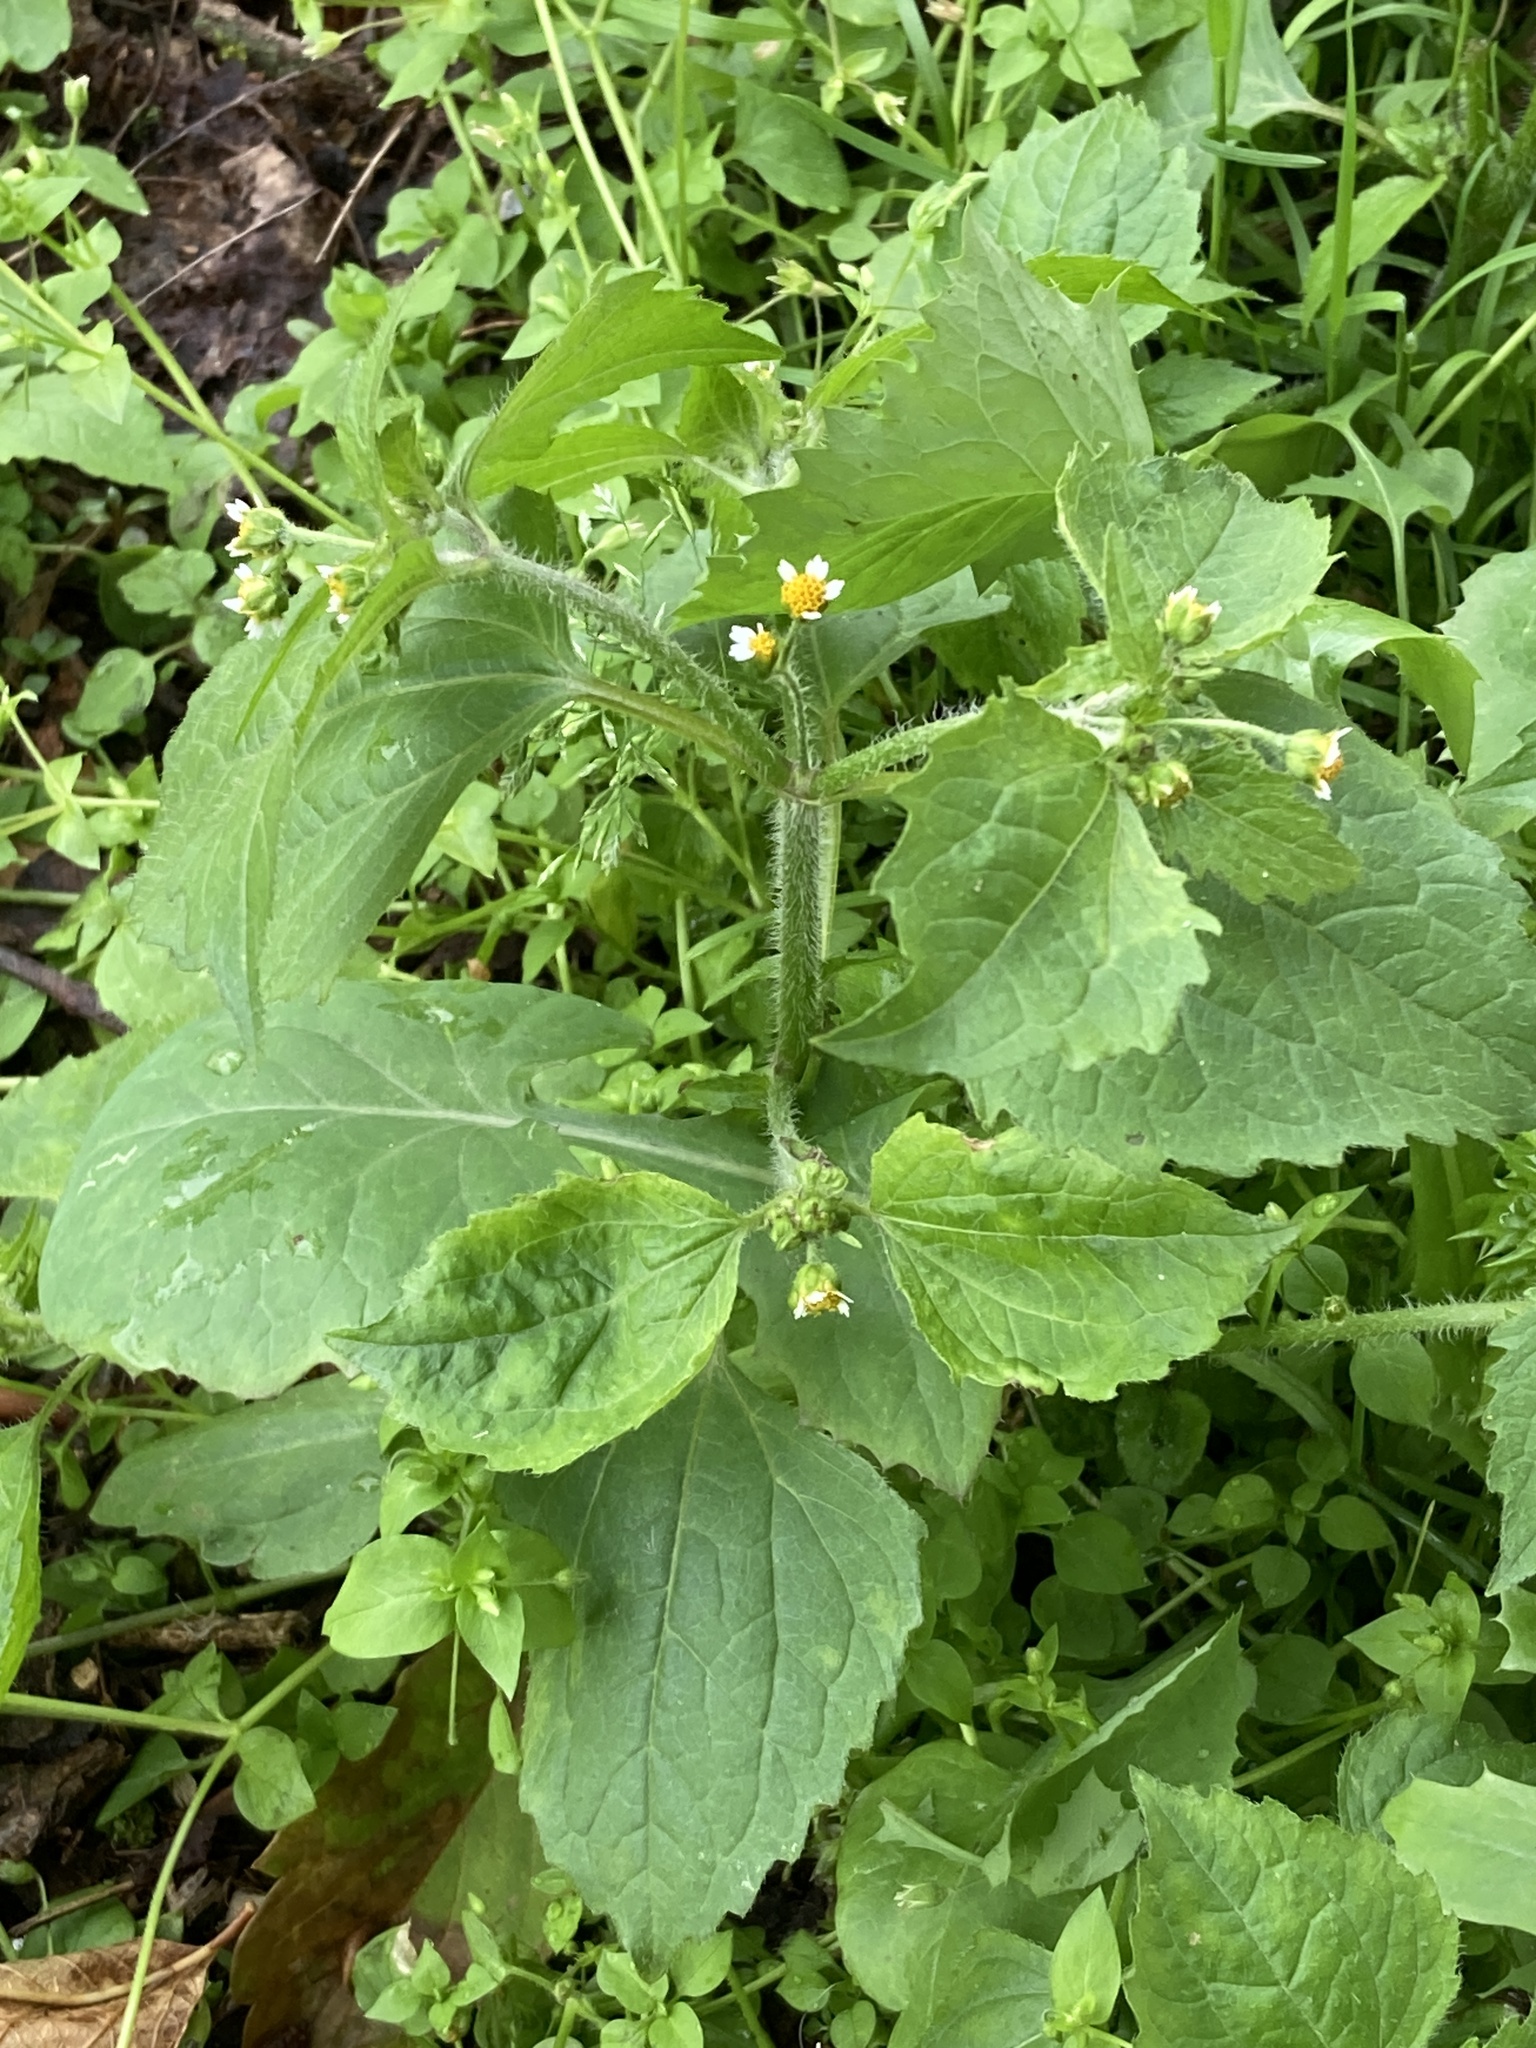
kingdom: Plantae
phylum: Tracheophyta
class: Magnoliopsida
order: Asterales
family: Asteraceae
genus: Galinsoga
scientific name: Galinsoga quadriradiata
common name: Shaggy soldier
